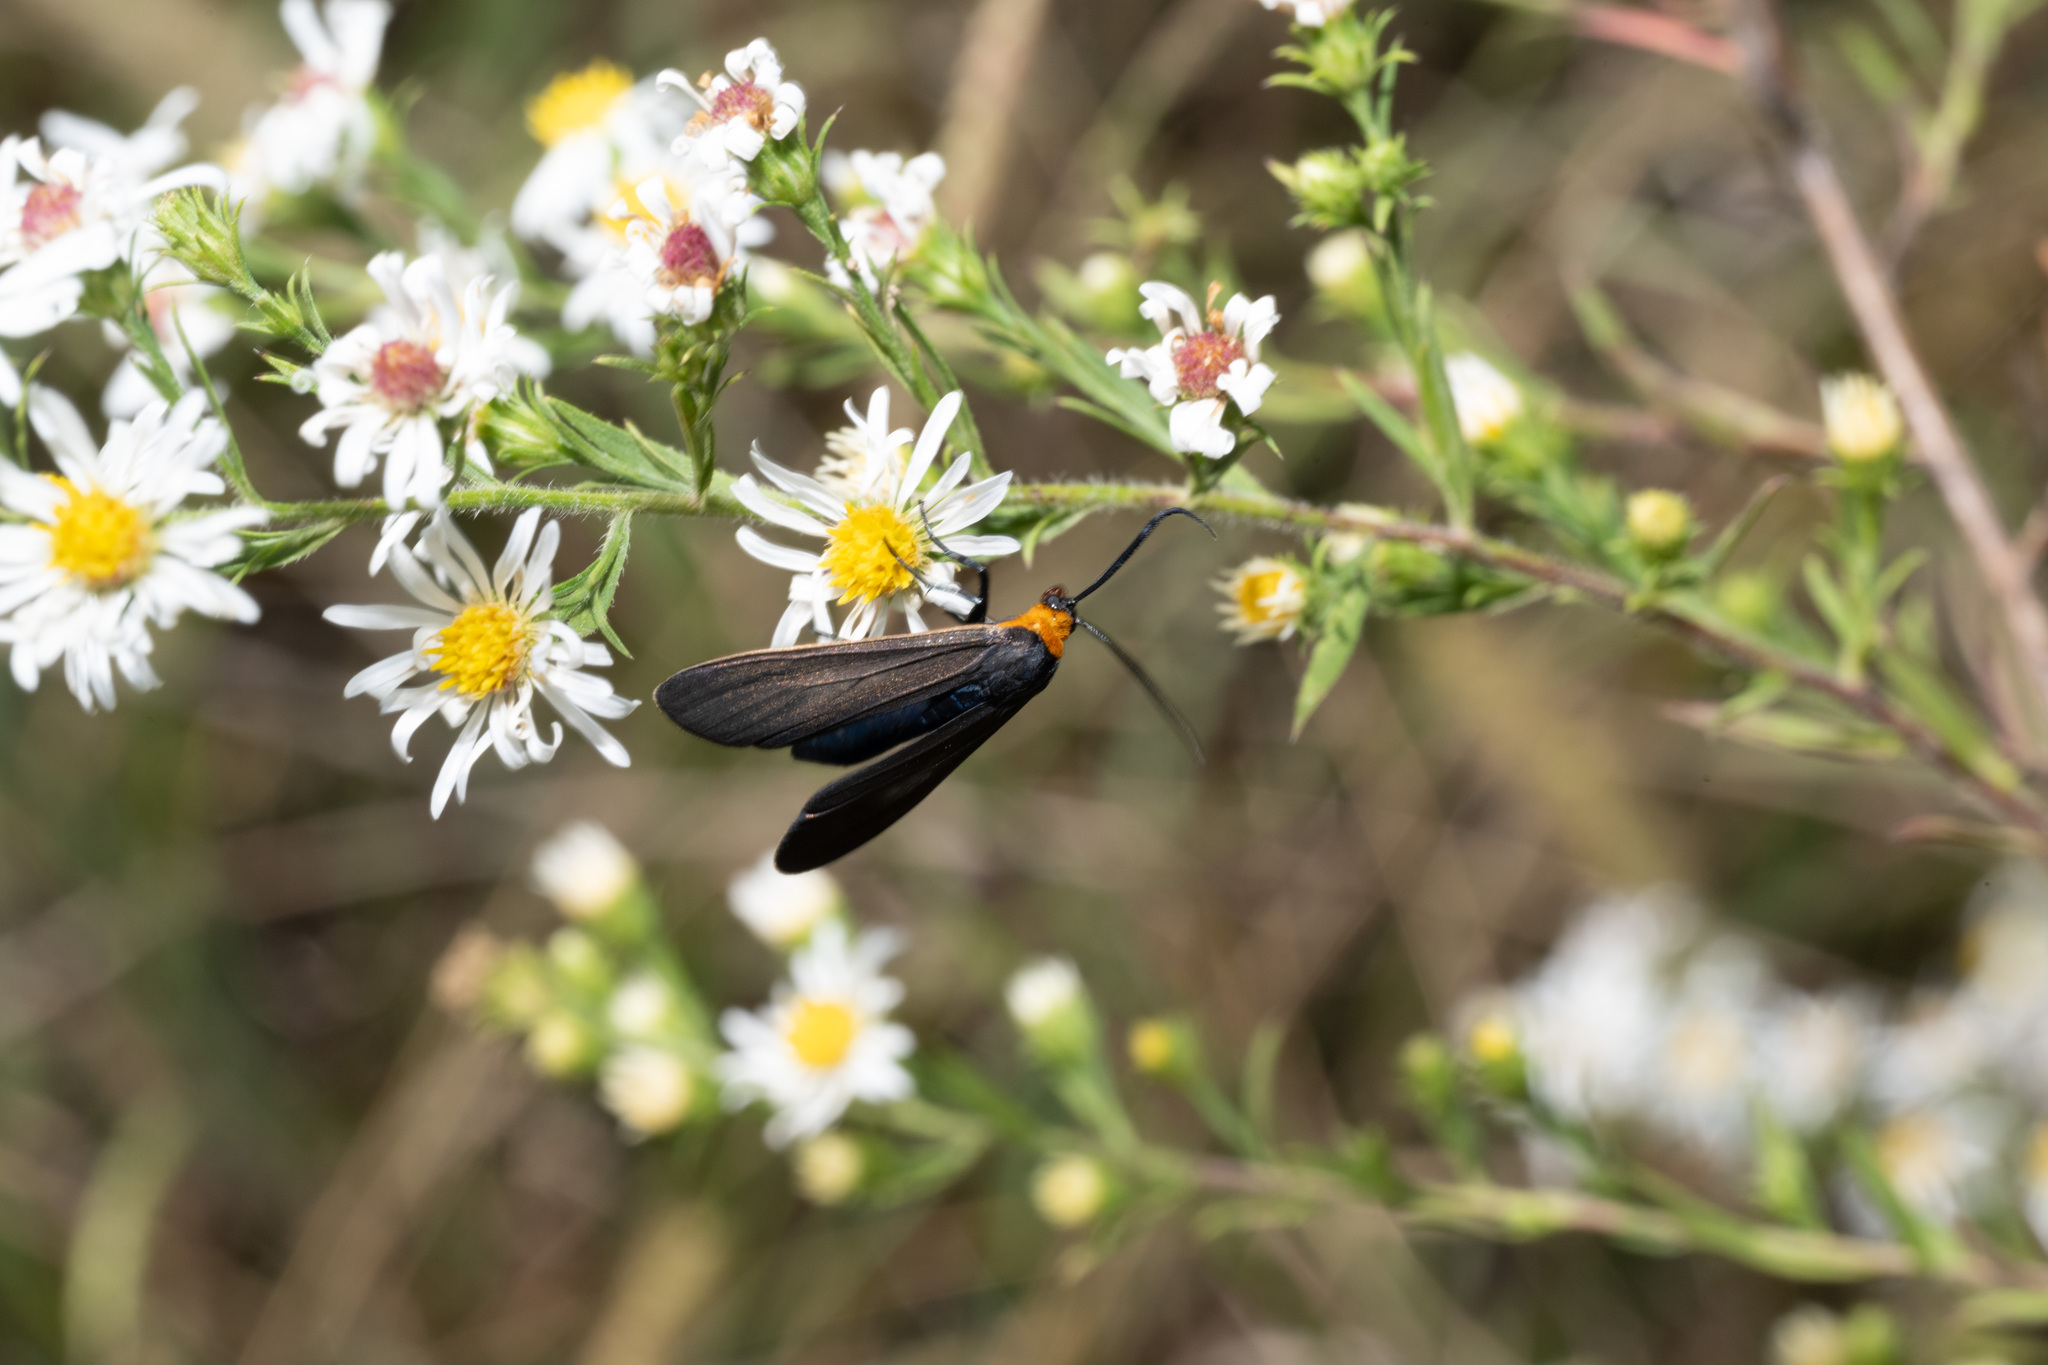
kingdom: Animalia
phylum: Arthropoda
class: Insecta
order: Lepidoptera
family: Erebidae
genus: Cisseps
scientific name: Cisseps fulvicollis
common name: Yellow-collared scape moth
